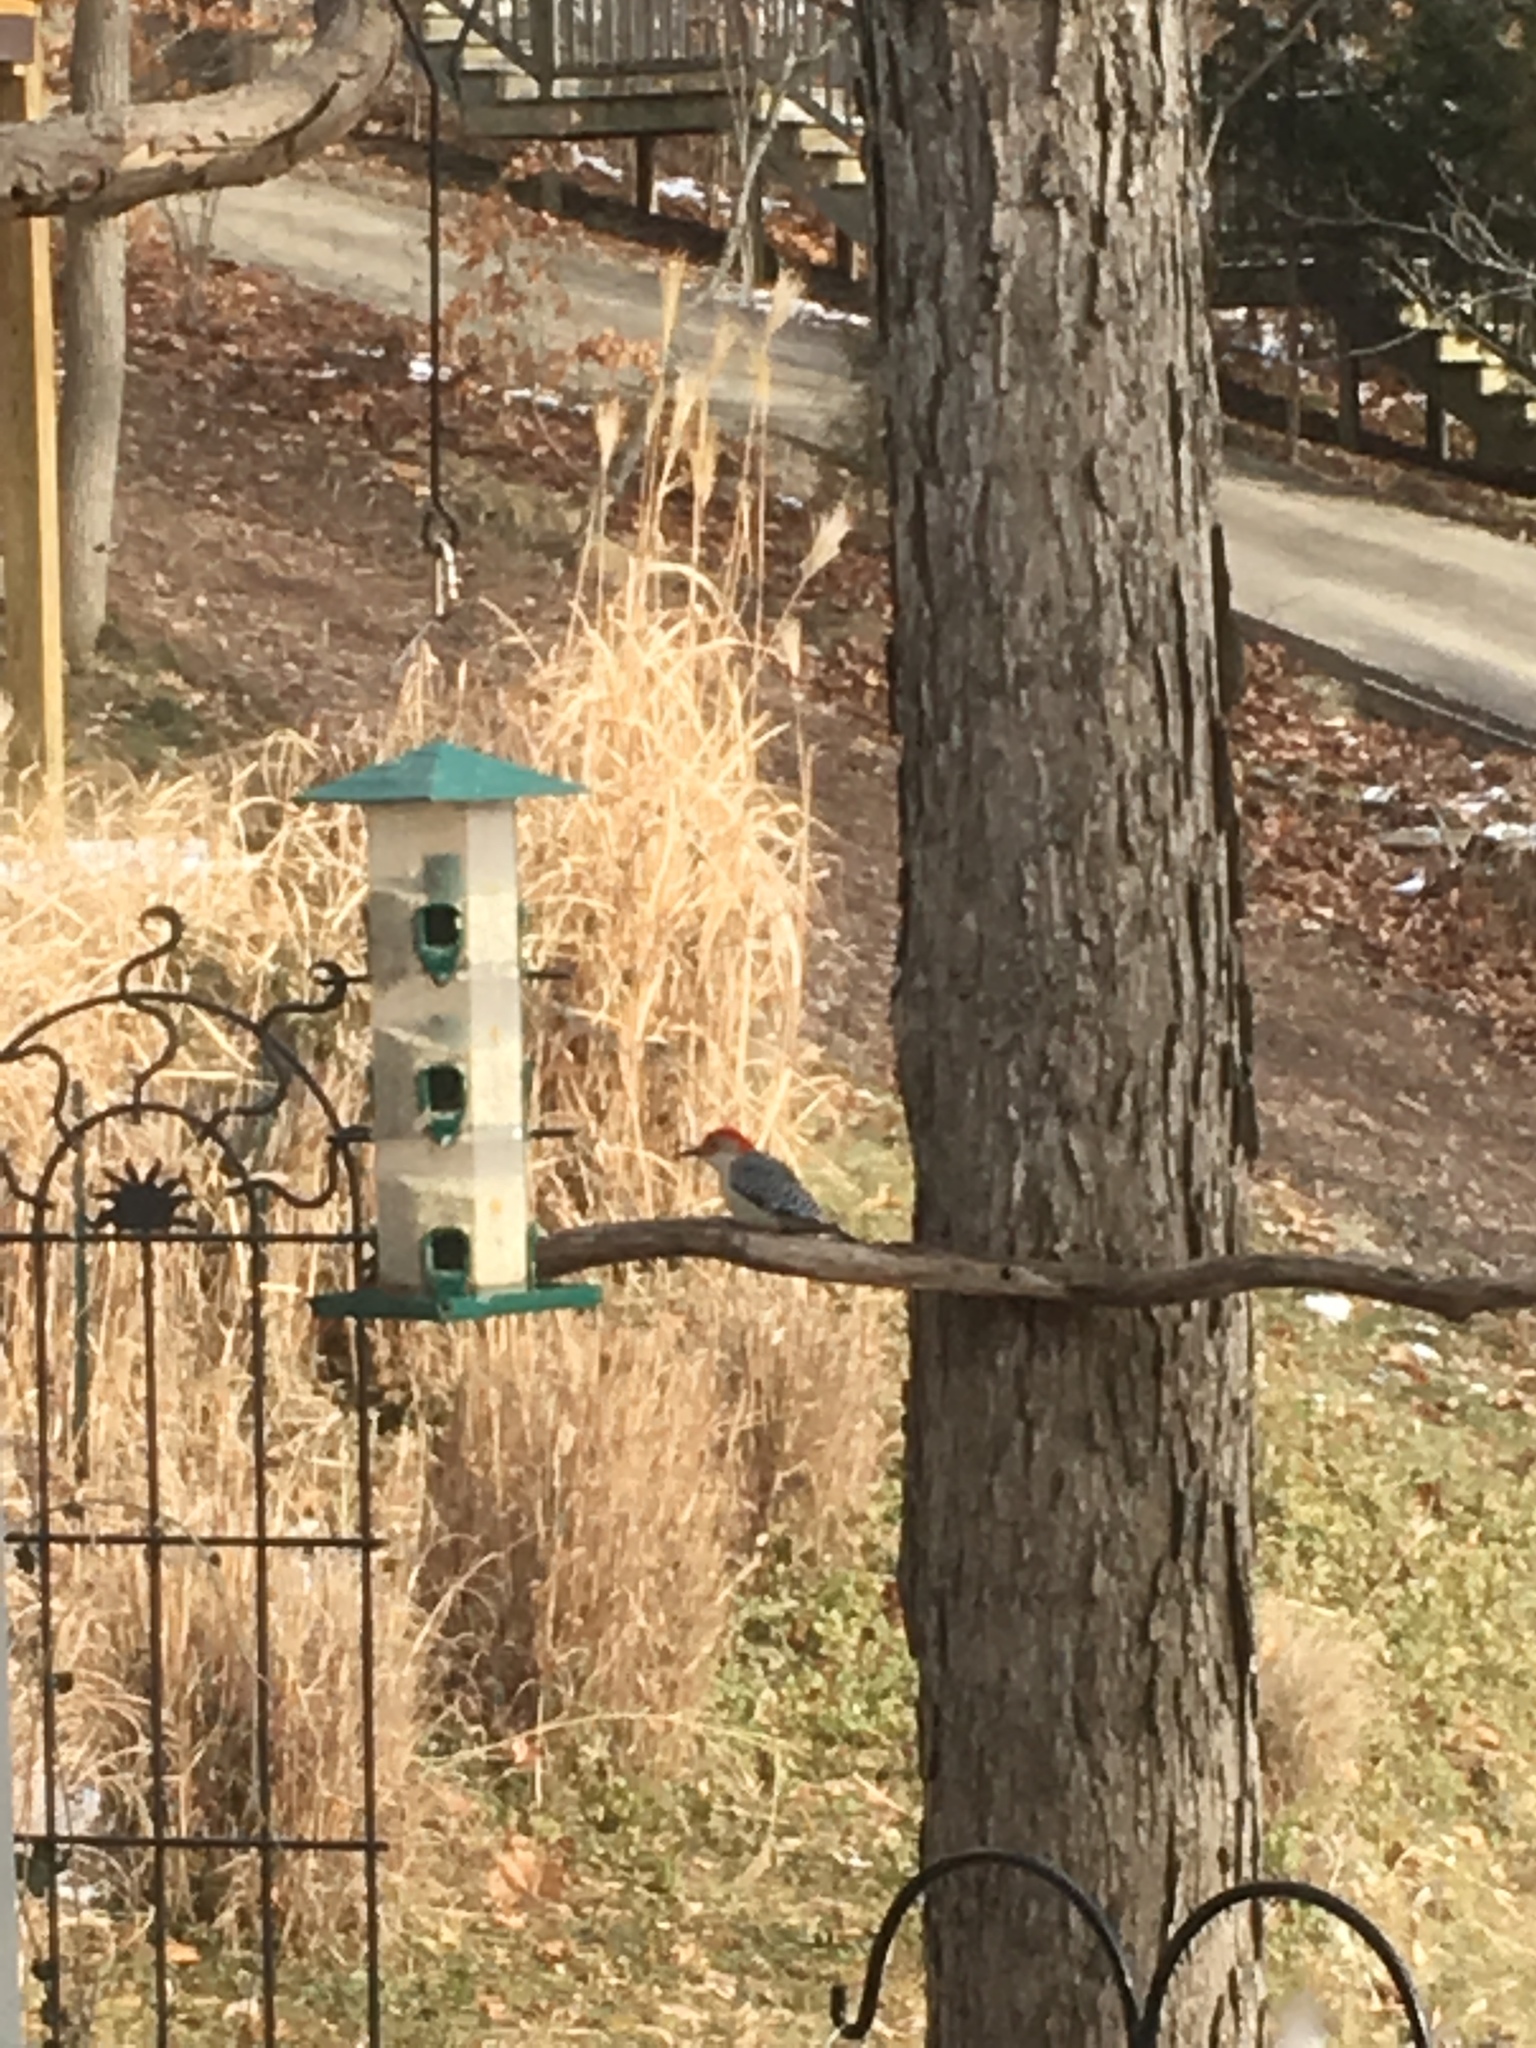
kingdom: Animalia
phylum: Chordata
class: Aves
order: Piciformes
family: Picidae
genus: Melanerpes
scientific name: Melanerpes carolinus
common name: Red-bellied woodpecker
